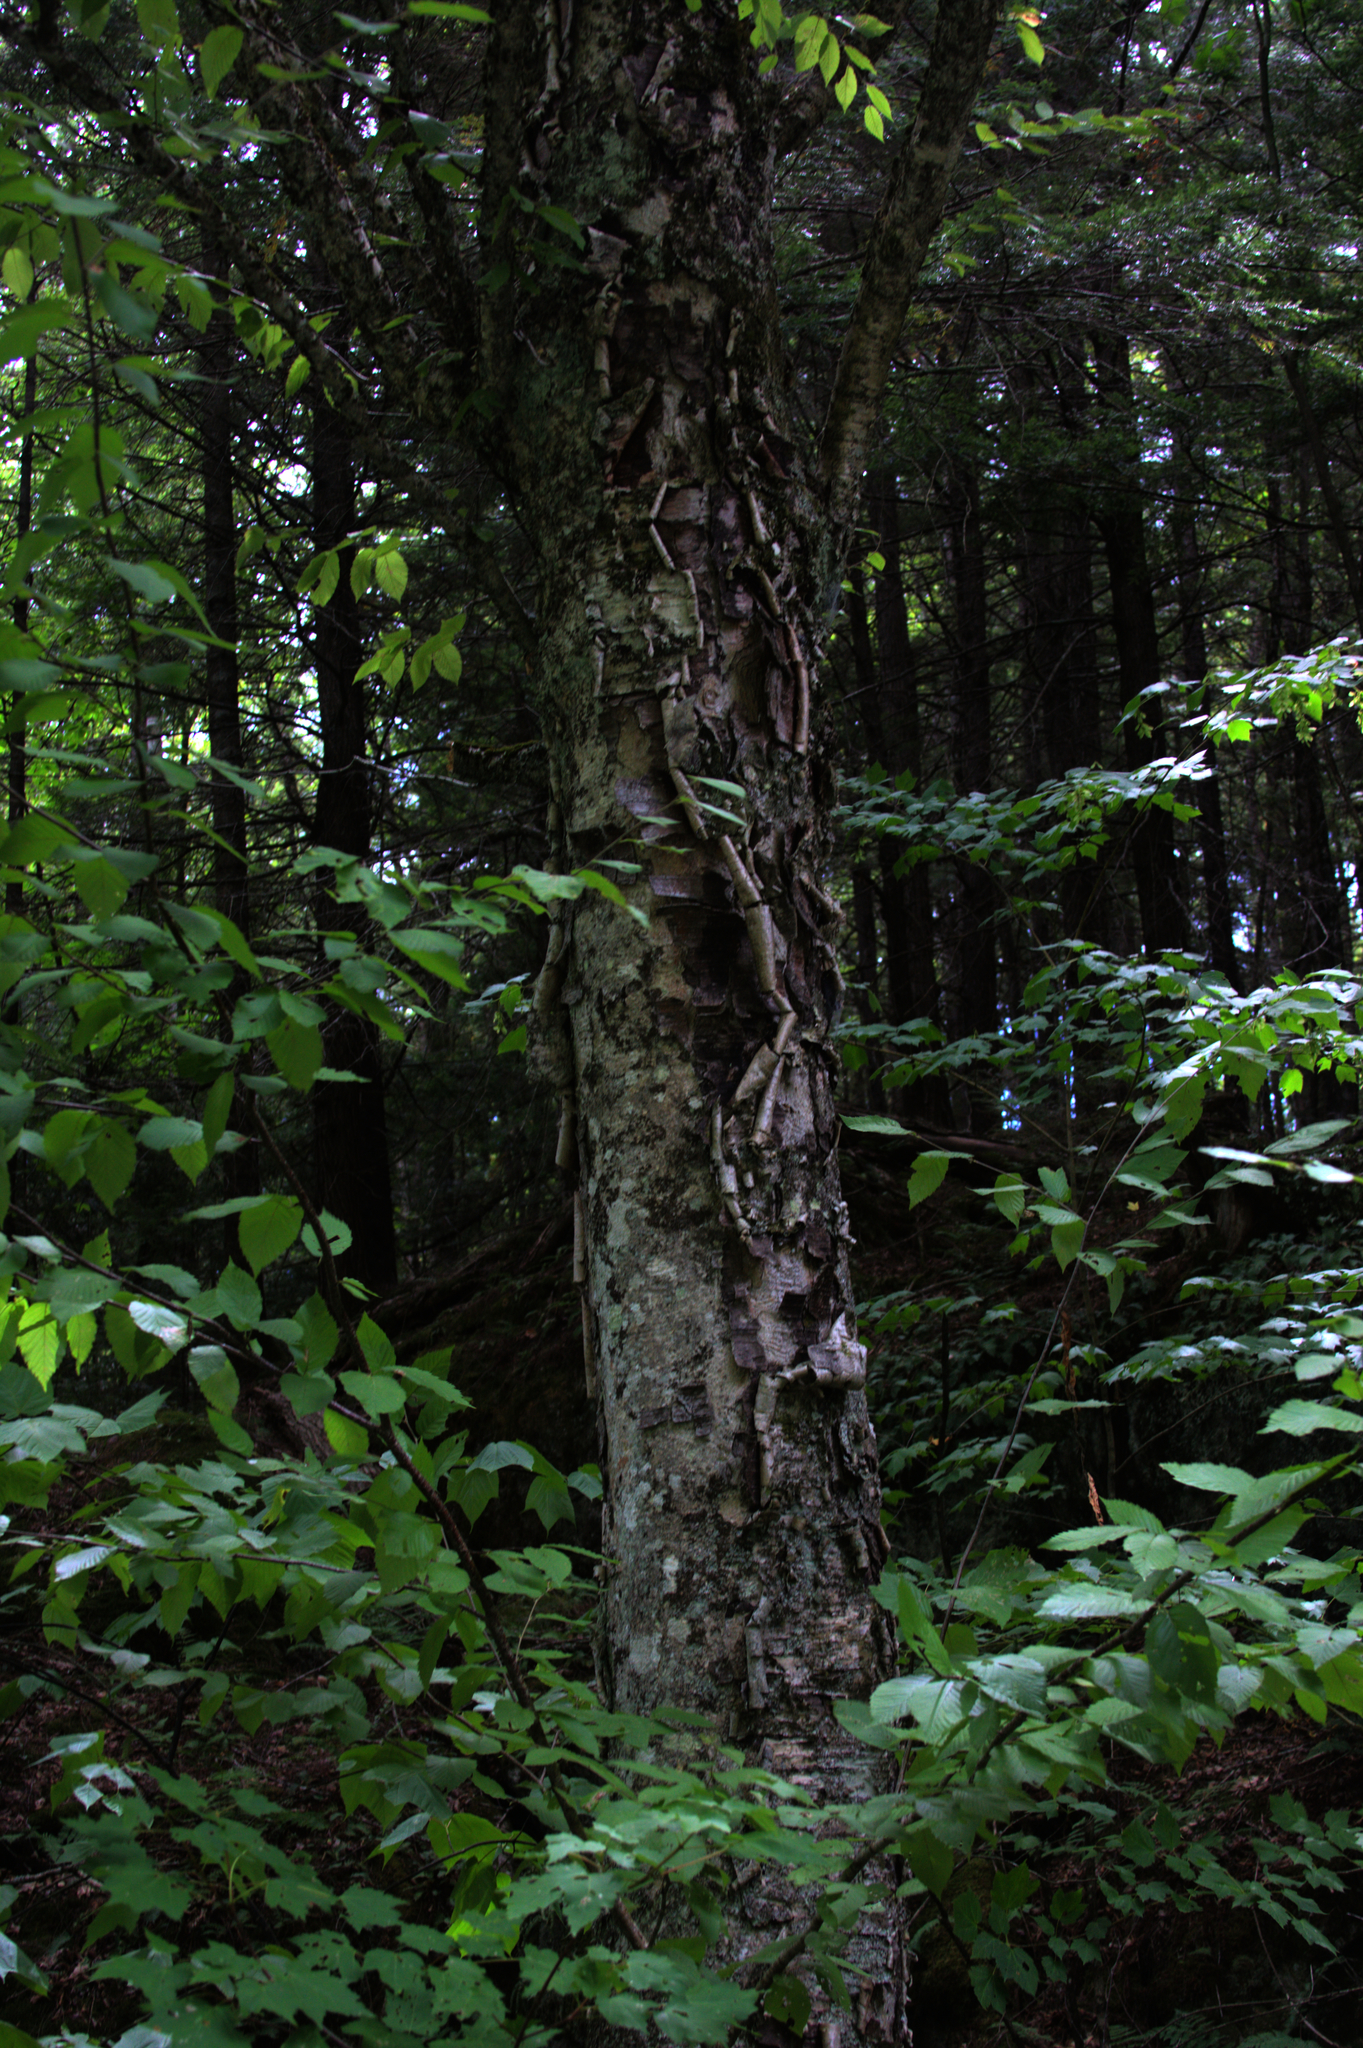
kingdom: Plantae
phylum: Tracheophyta
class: Magnoliopsida
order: Fagales
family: Betulaceae
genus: Betula
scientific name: Betula alleghaniensis
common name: Yellow birch
